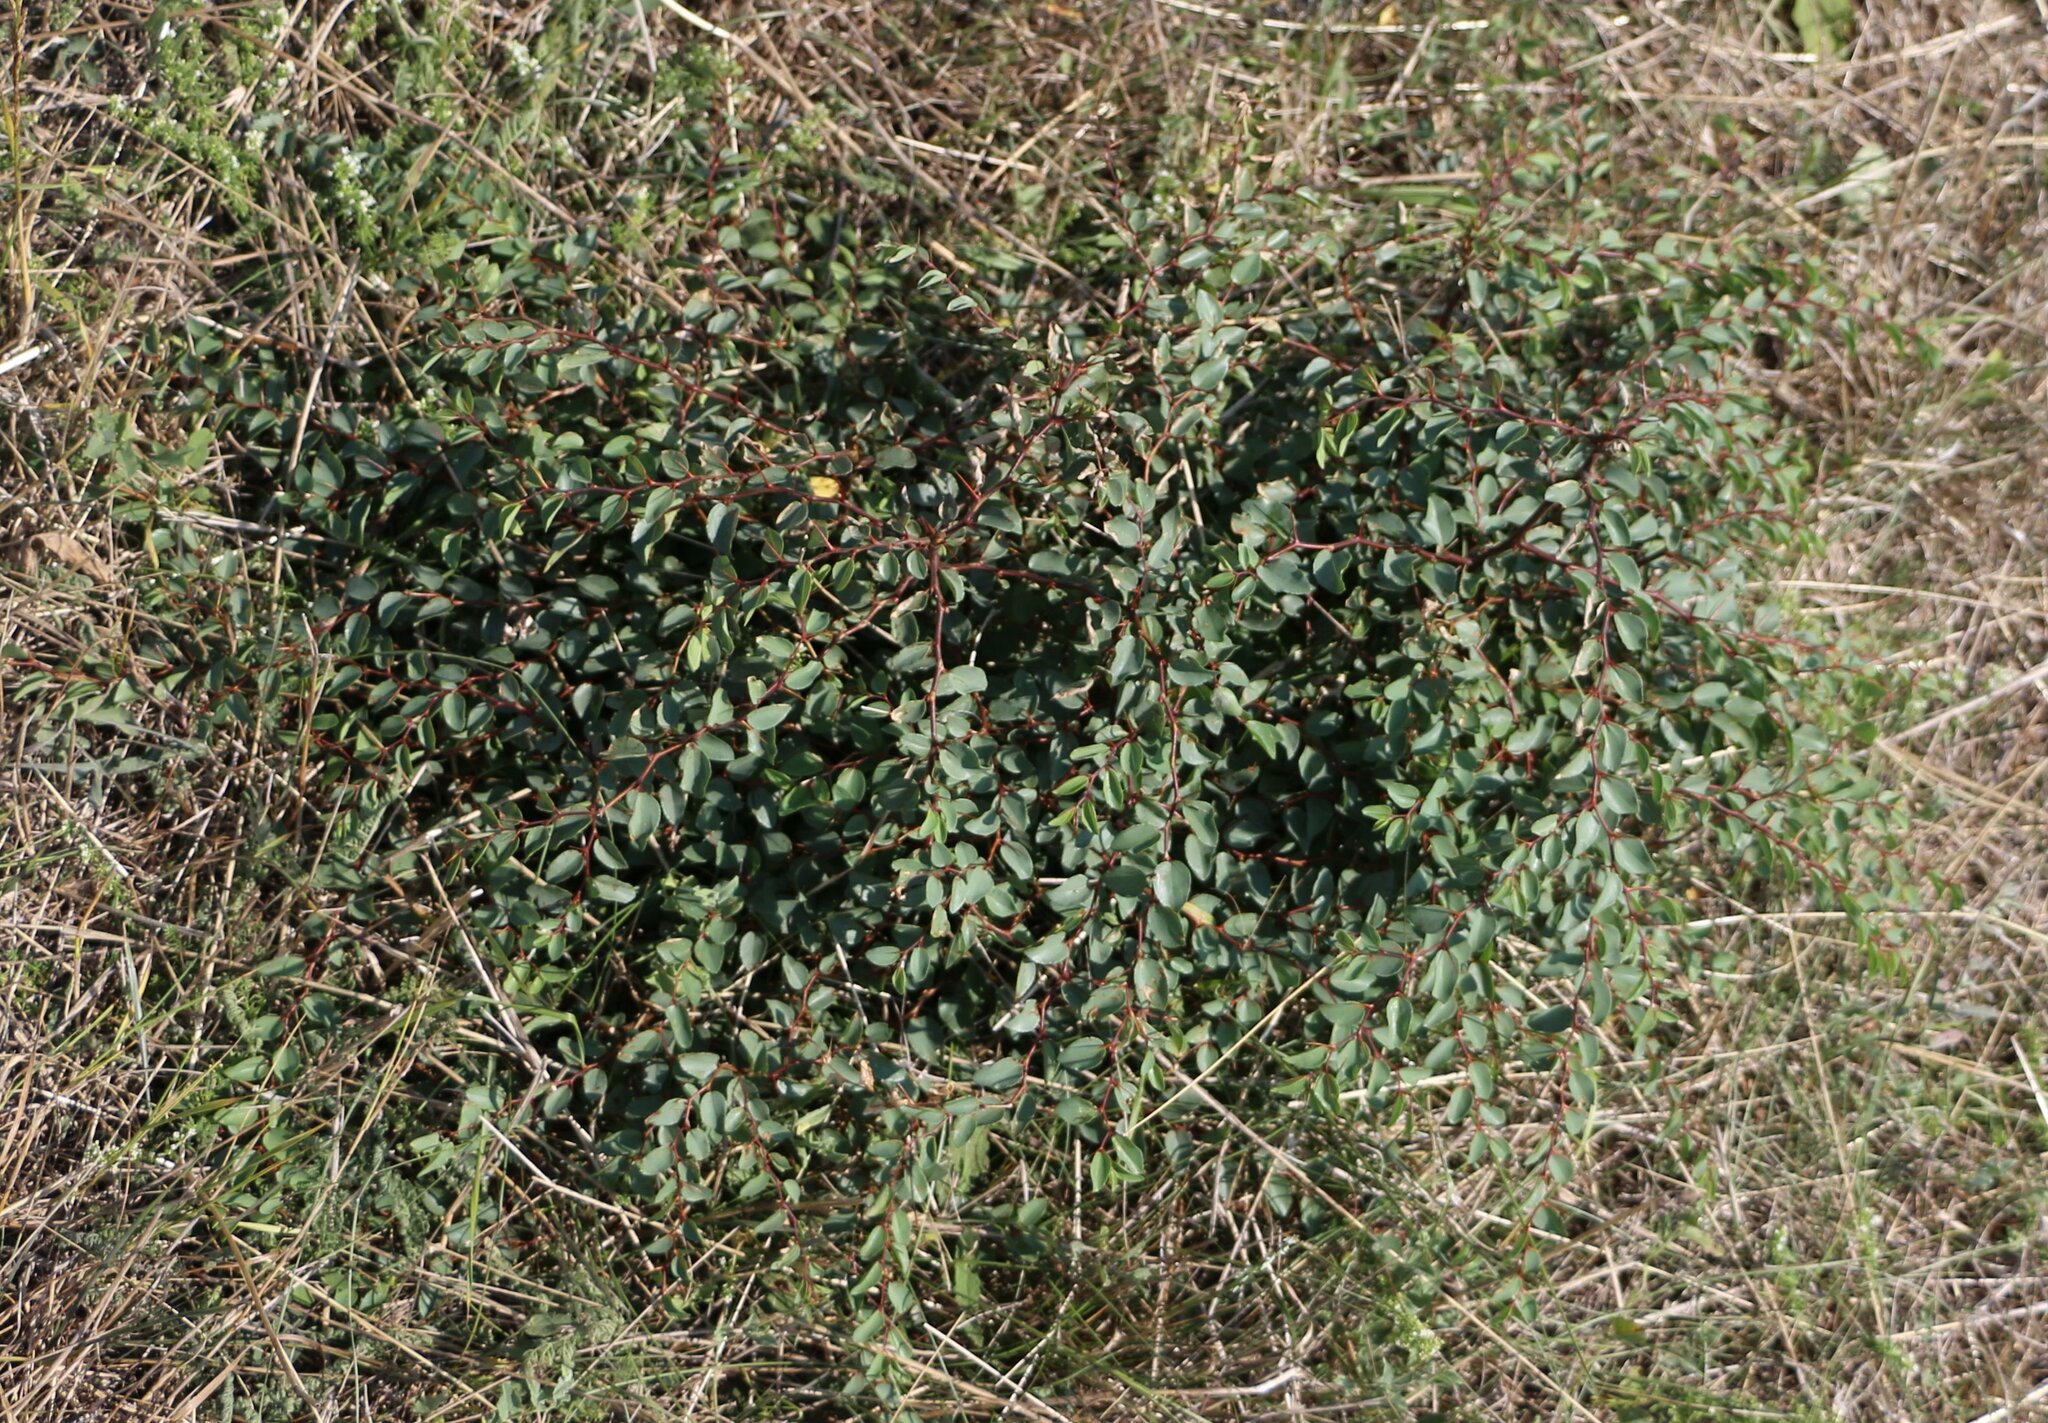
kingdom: Plantae
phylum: Tracheophyta
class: Magnoliopsida
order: Rosales
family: Rhamnaceae
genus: Paliurus
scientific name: Paliurus spina-christi
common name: Jeruselem thorn
